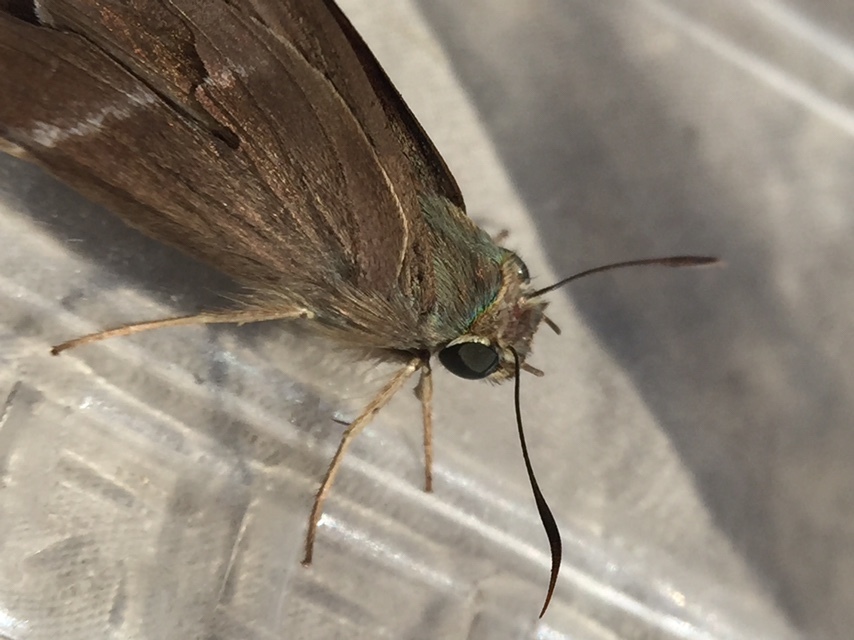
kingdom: Animalia
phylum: Arthropoda
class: Insecta
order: Lepidoptera
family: Hesperiidae
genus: Hasora
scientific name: Hasora chromus
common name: Common banded awl
